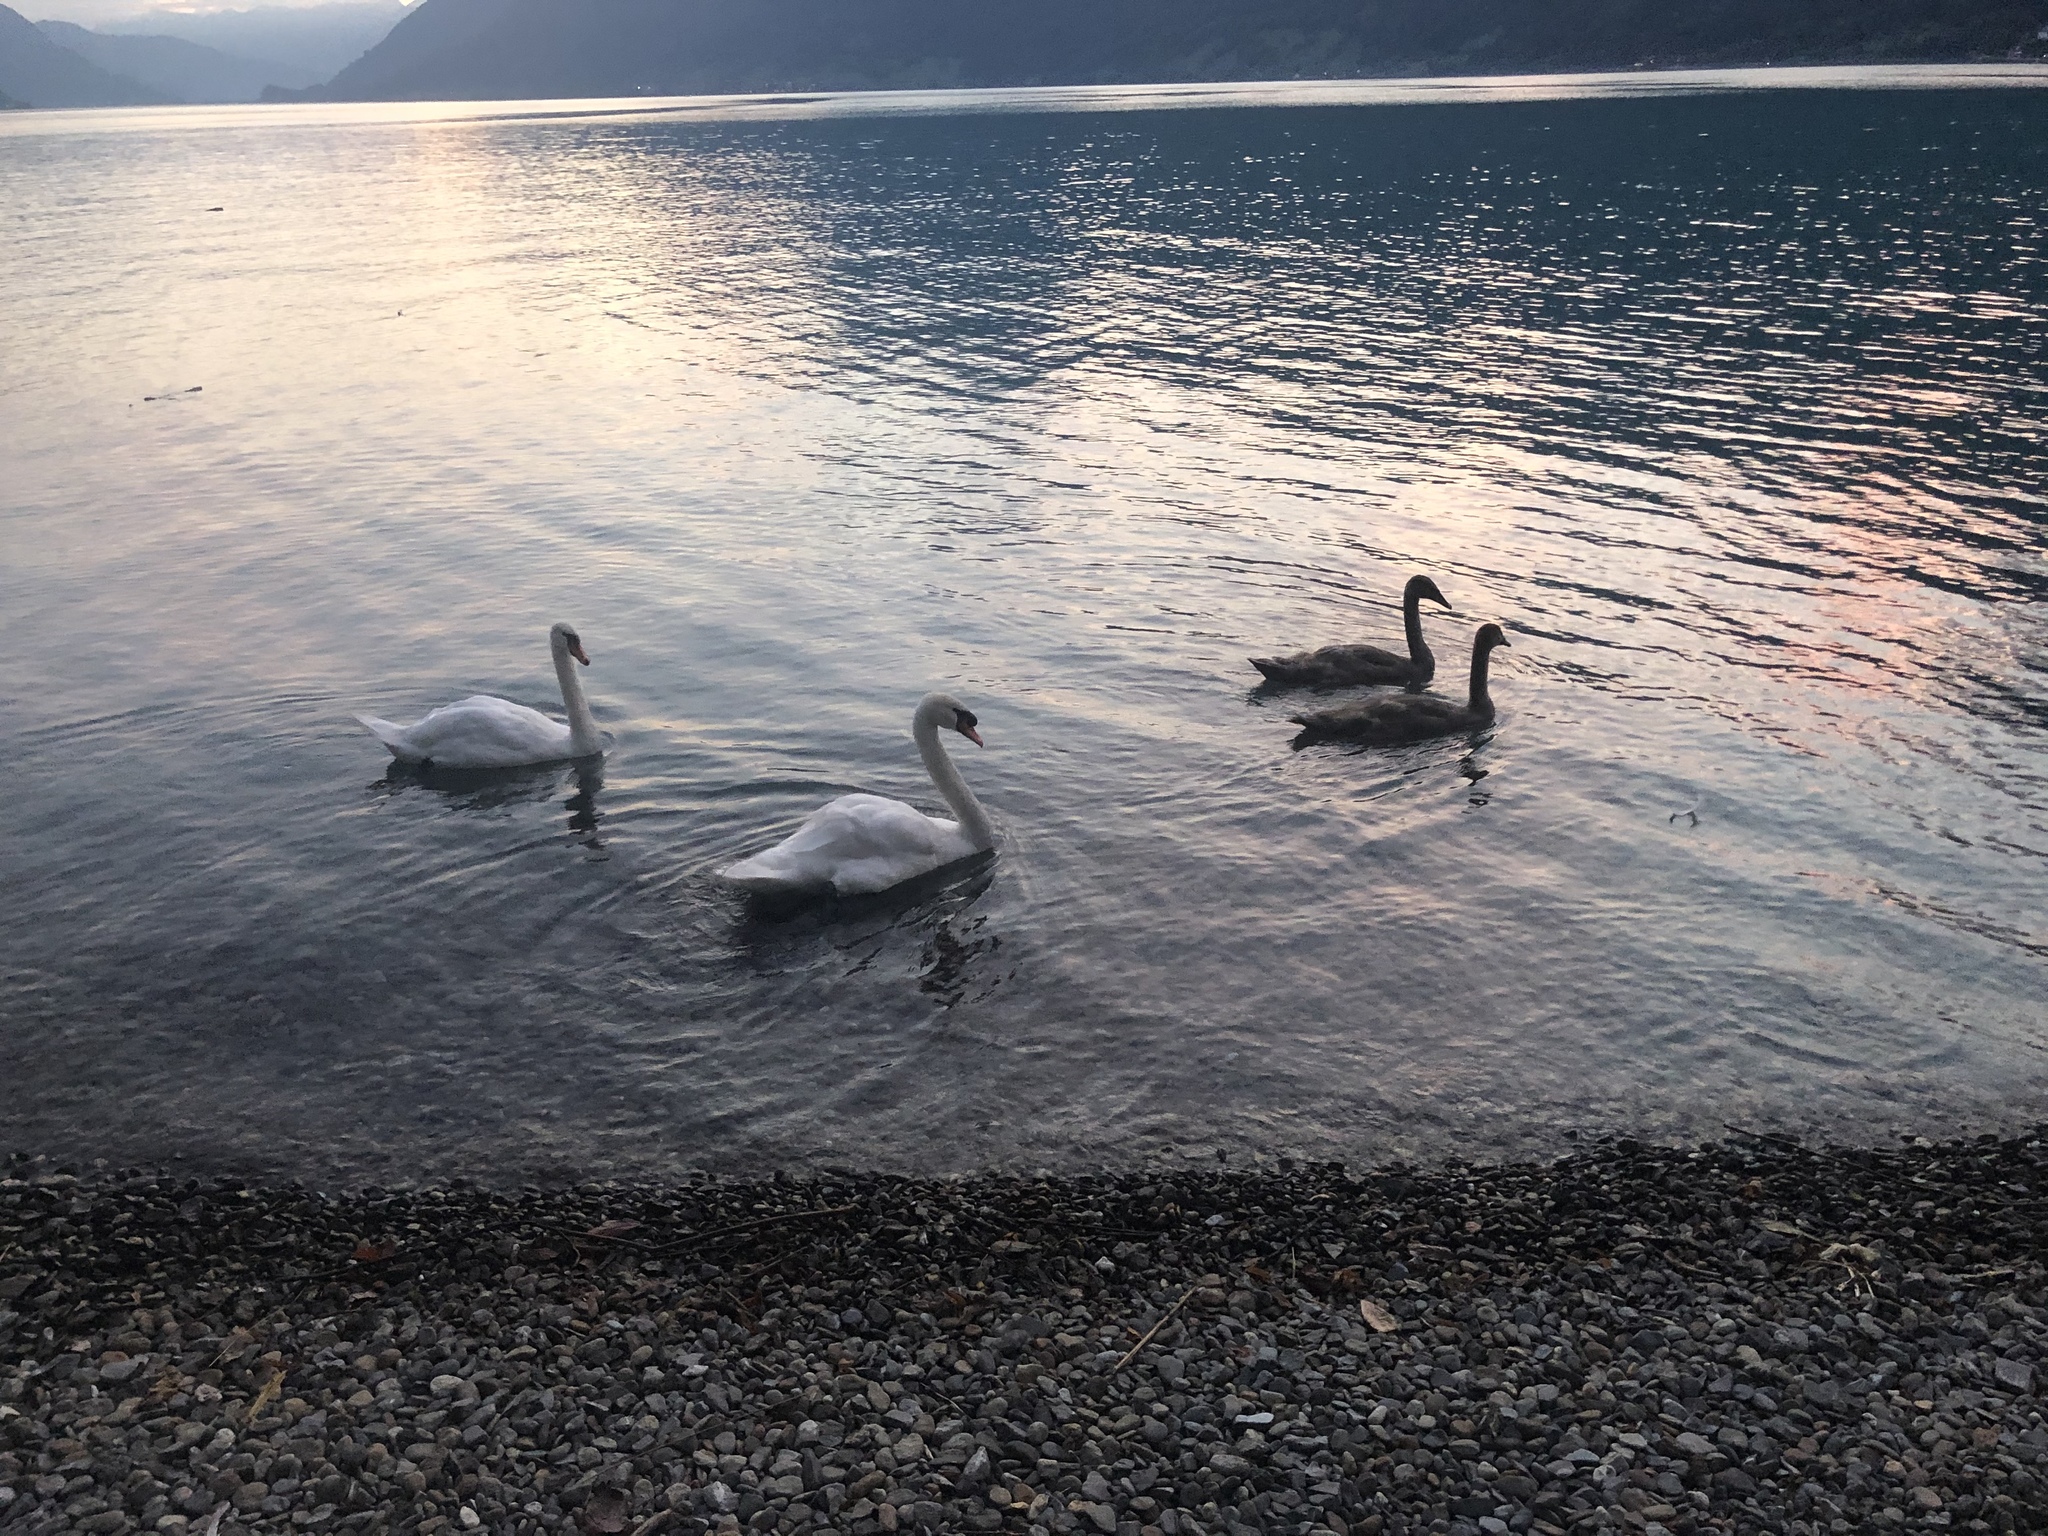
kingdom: Animalia
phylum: Chordata
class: Aves
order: Anseriformes
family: Anatidae
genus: Cygnus
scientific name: Cygnus olor
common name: Mute swan
